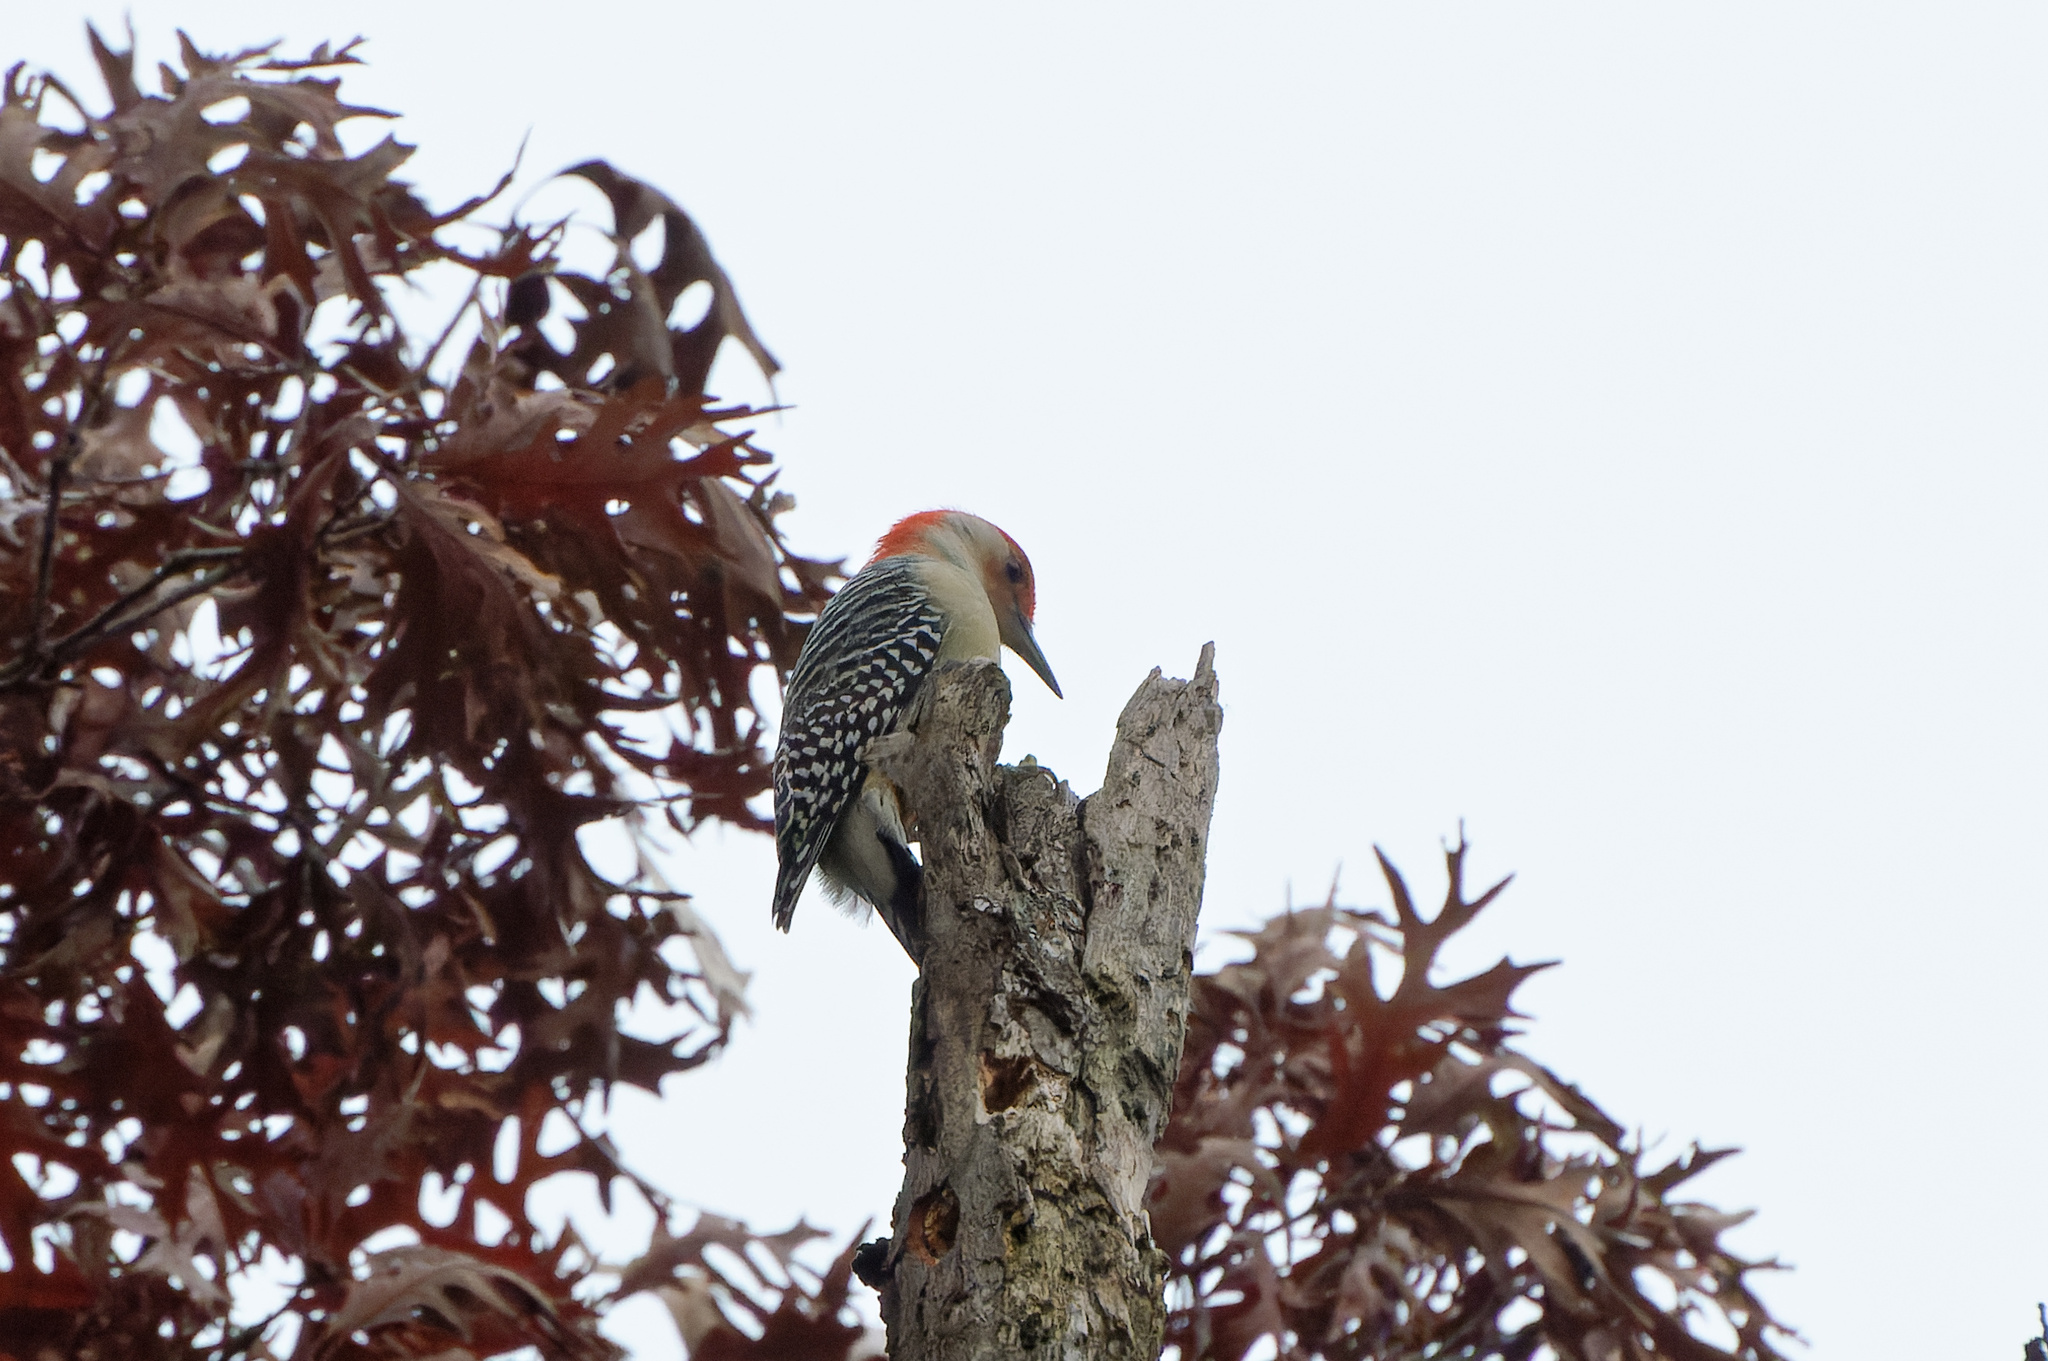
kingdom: Animalia
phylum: Chordata
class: Aves
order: Piciformes
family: Picidae
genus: Melanerpes
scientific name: Melanerpes carolinus
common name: Red-bellied woodpecker
